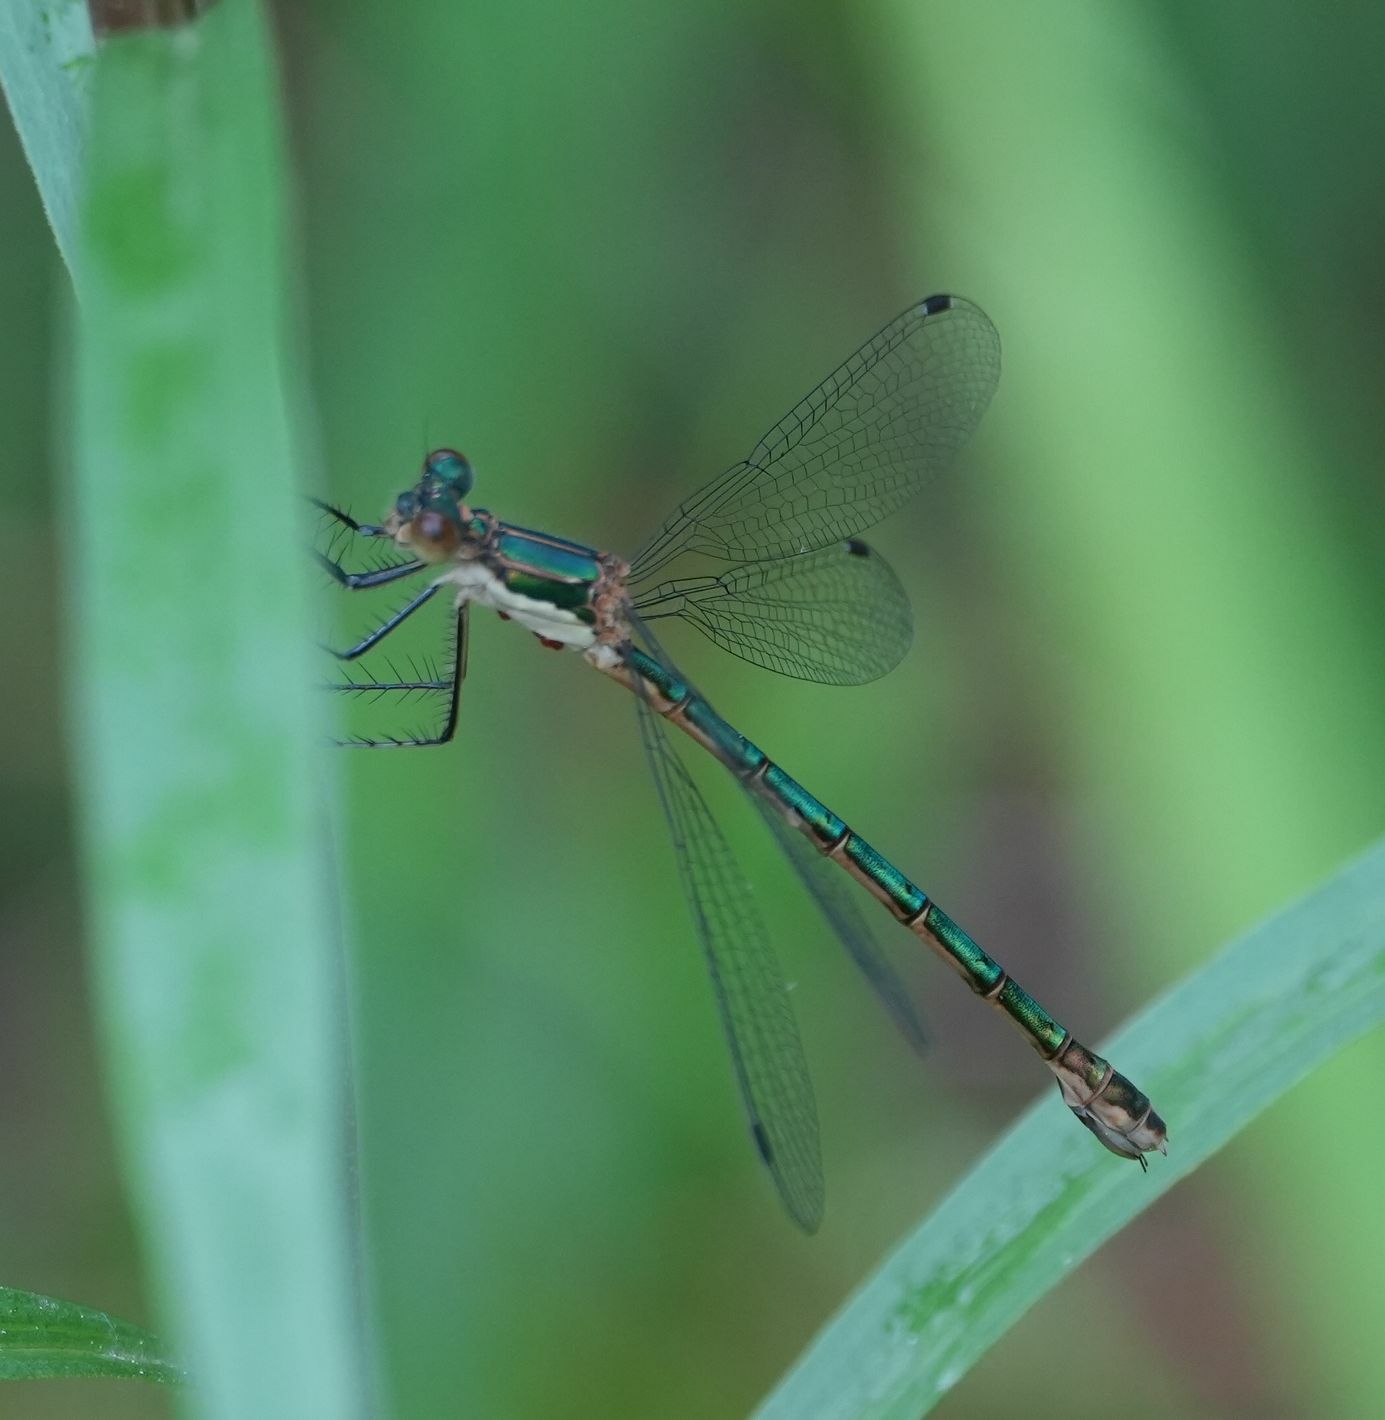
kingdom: Animalia
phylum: Arthropoda
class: Insecta
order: Odonata
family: Lestidae
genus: Lestes
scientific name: Lestes dryas
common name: Scarce emerald damselfly
